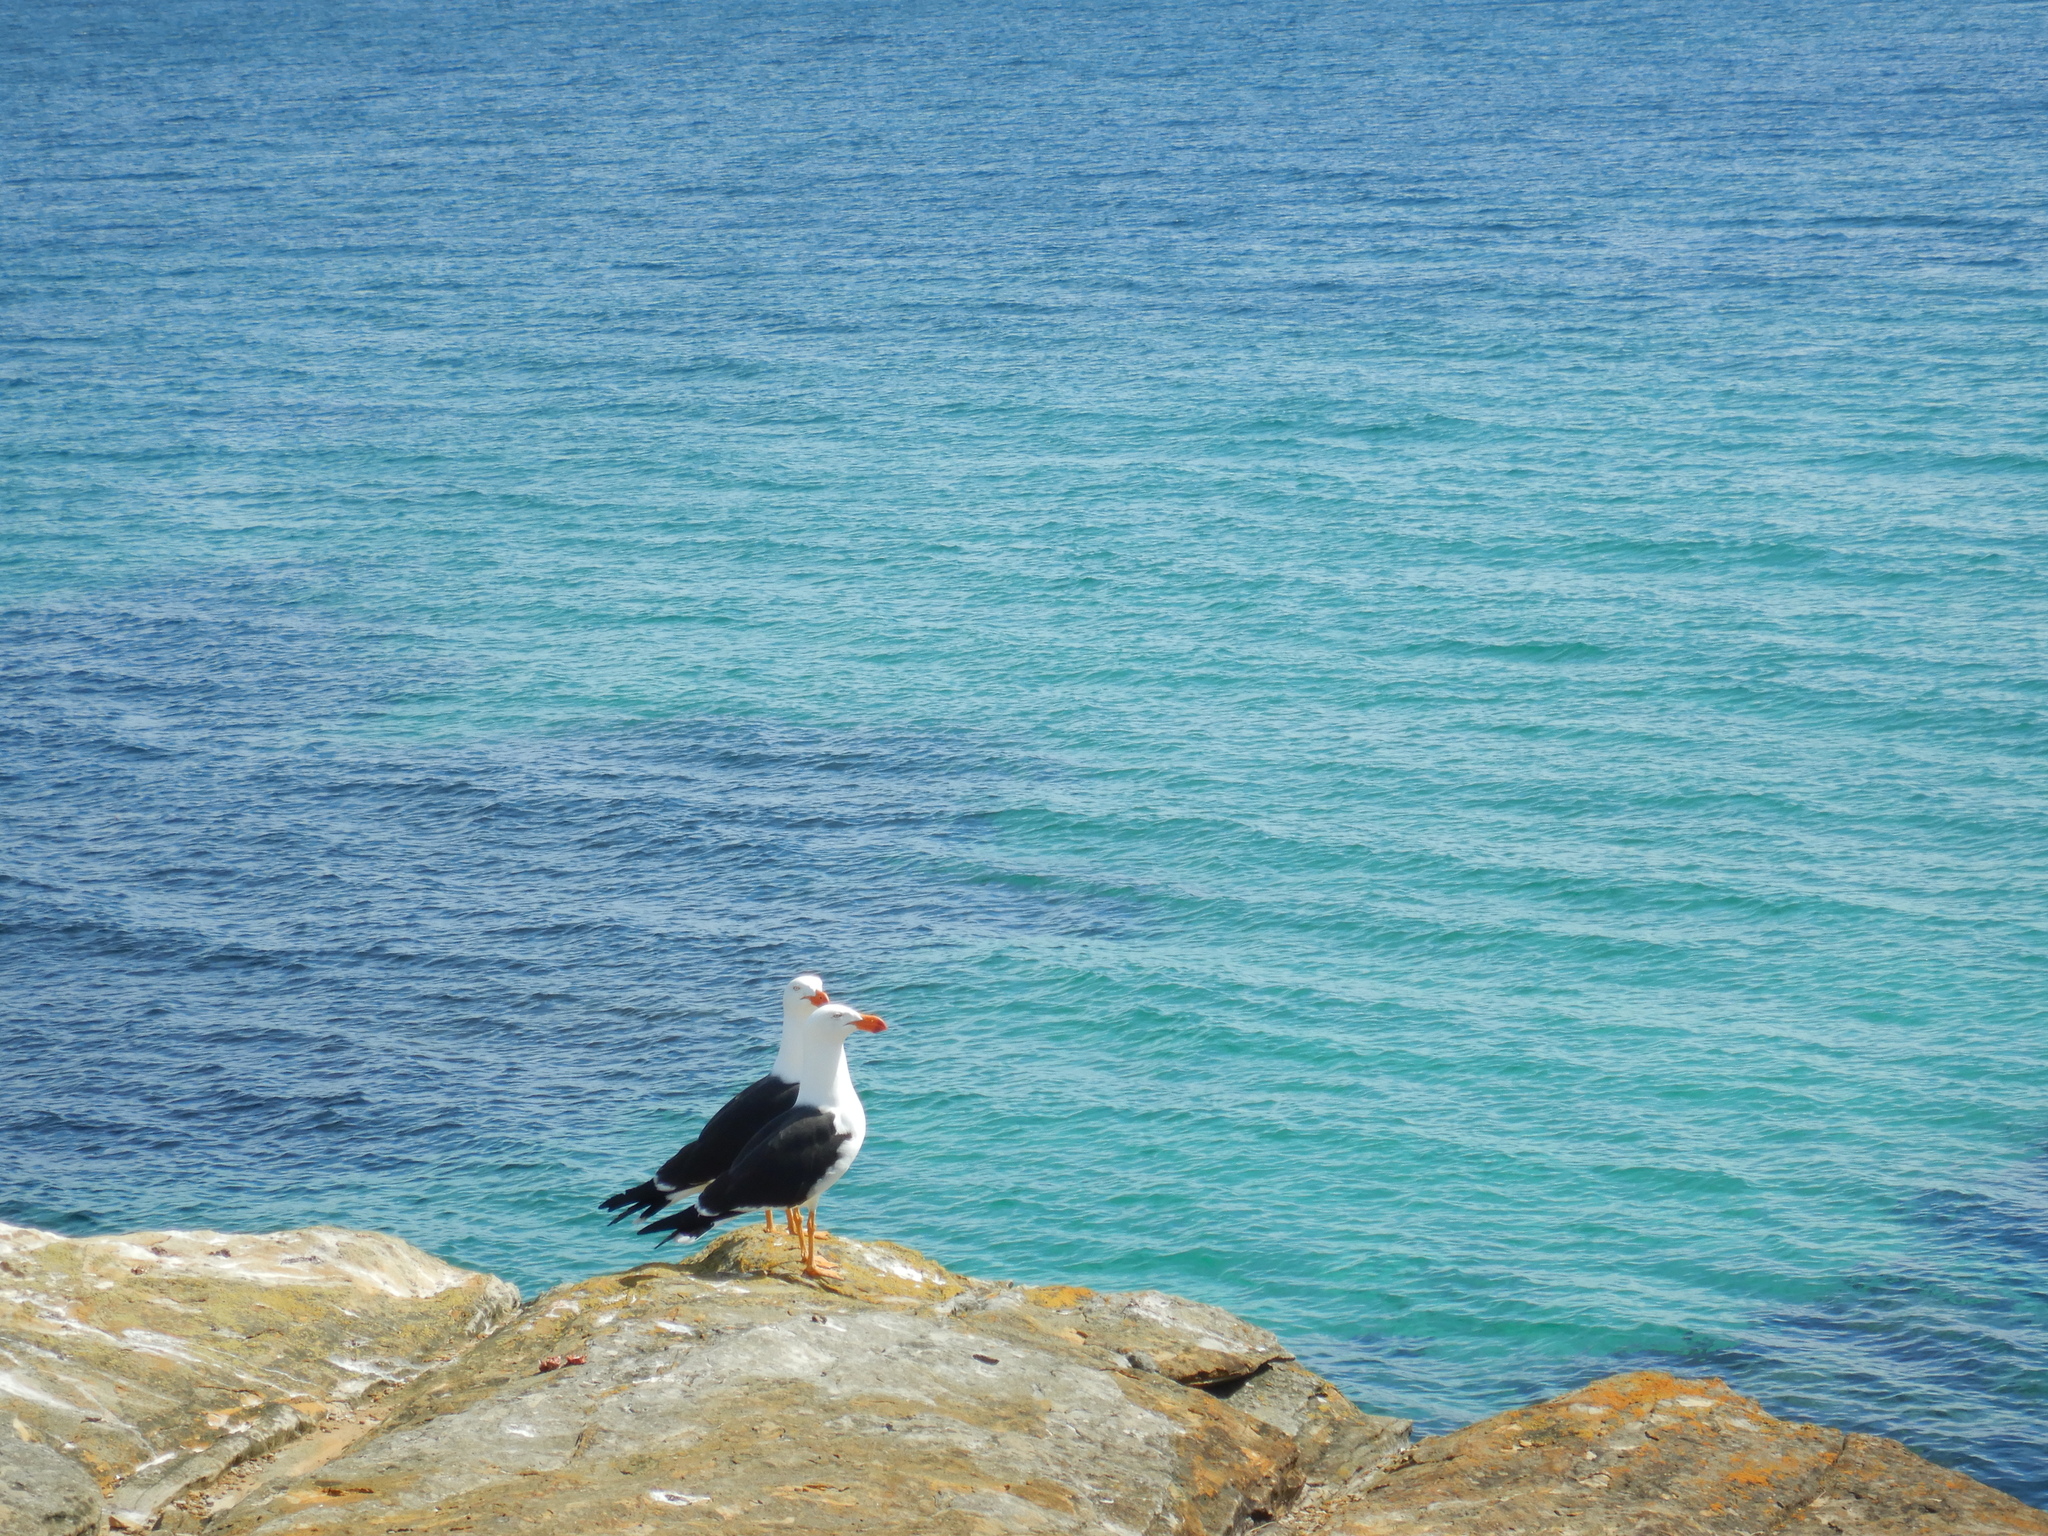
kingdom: Animalia
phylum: Chordata
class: Aves
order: Charadriiformes
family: Laridae
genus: Larus
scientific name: Larus pacificus
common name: Pacific gull
